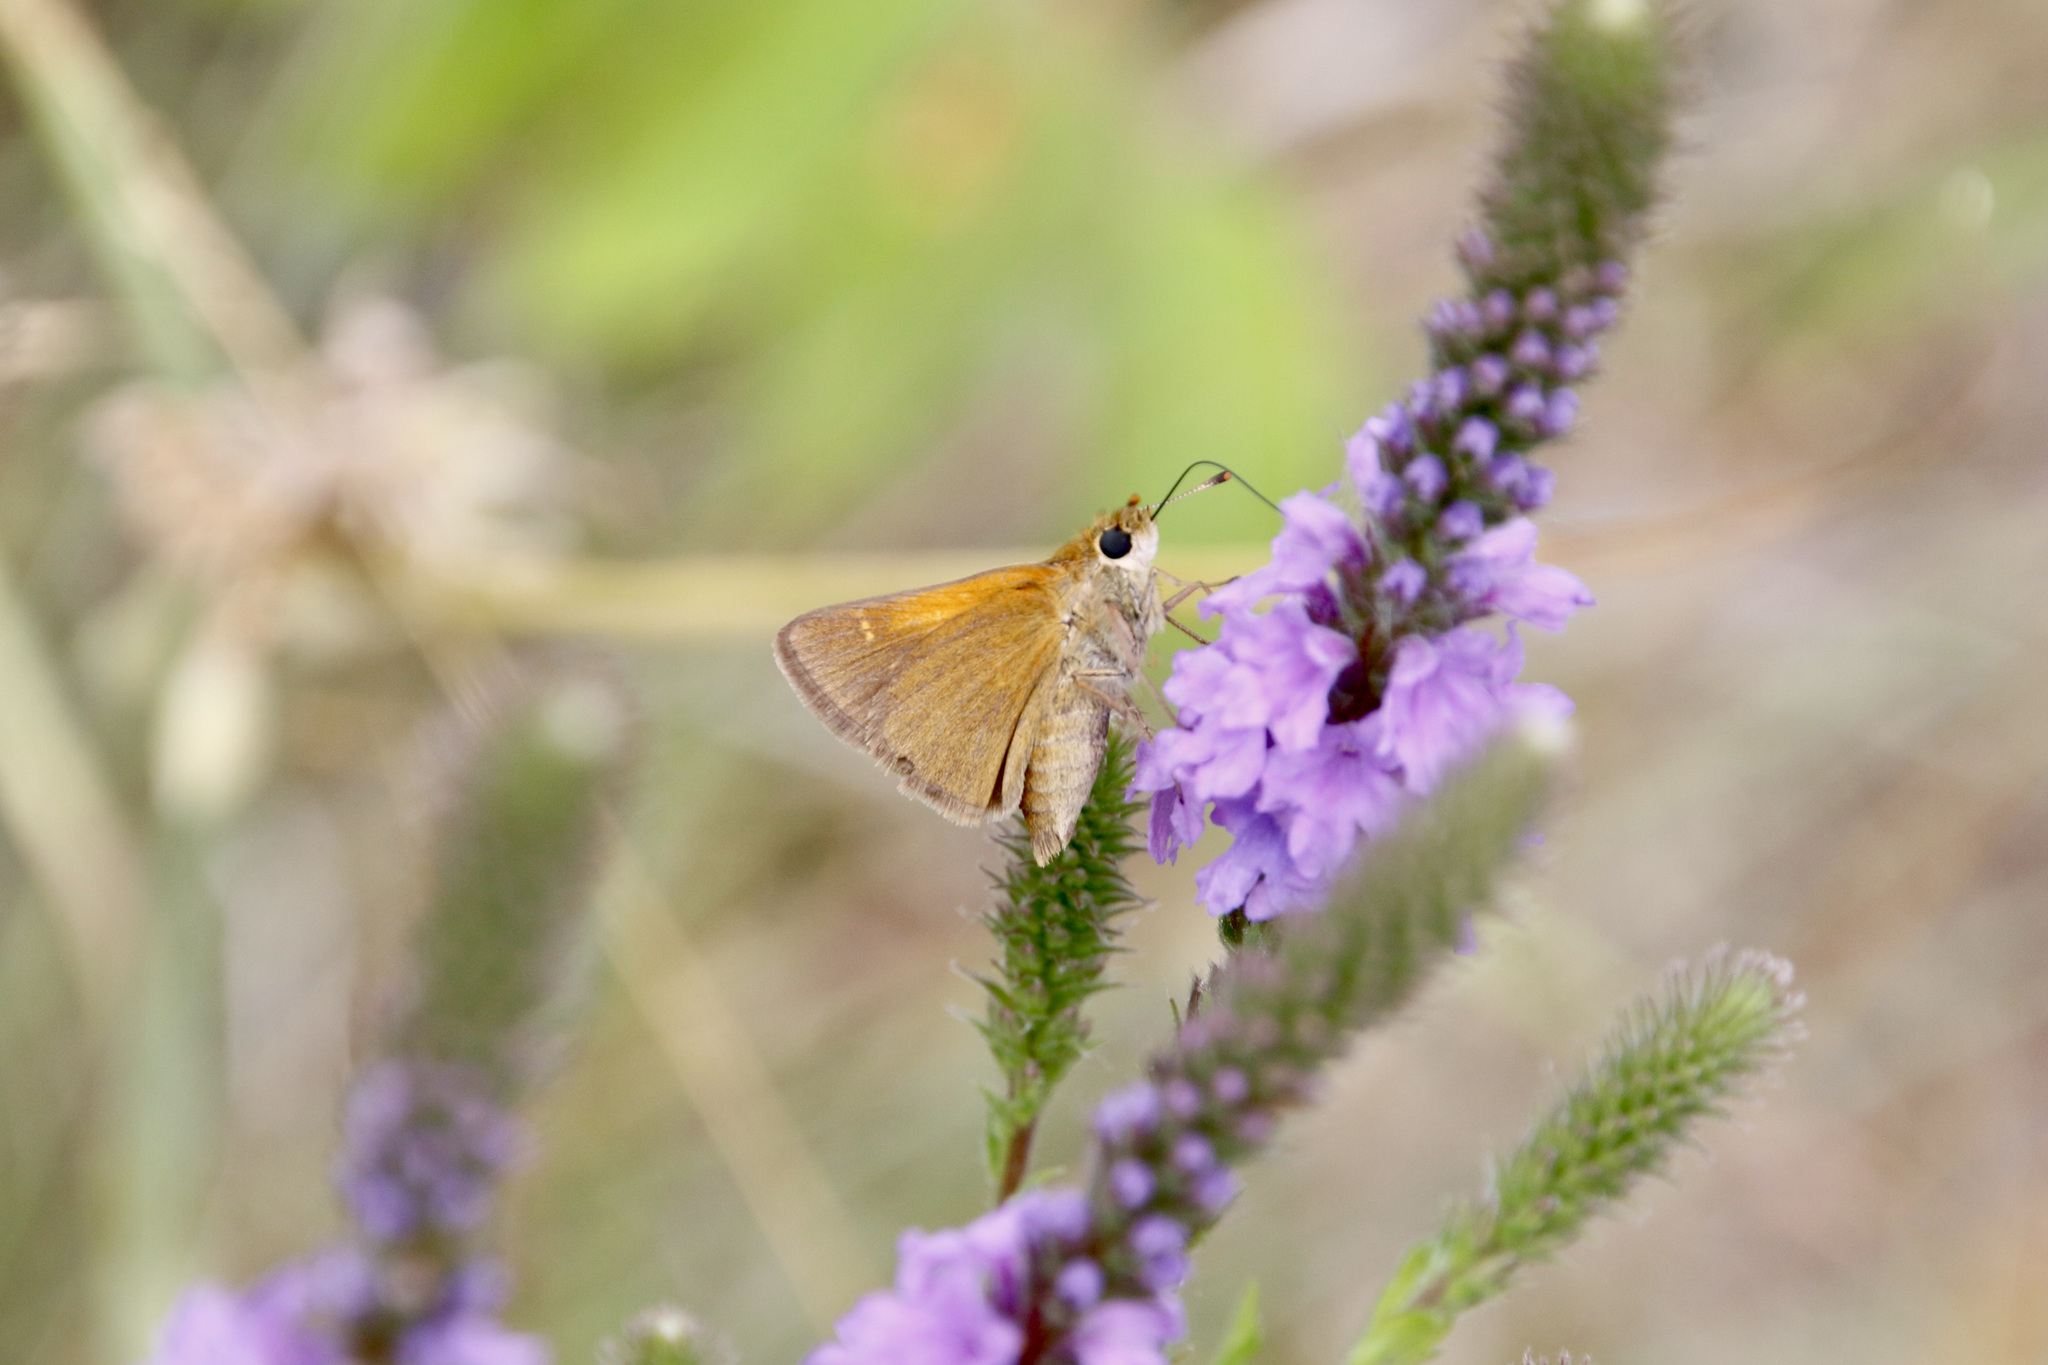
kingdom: Animalia
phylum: Arthropoda
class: Insecta
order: Lepidoptera
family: Hesperiidae
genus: Polites
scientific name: Polites themistocles
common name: Tawny-edged skipper
